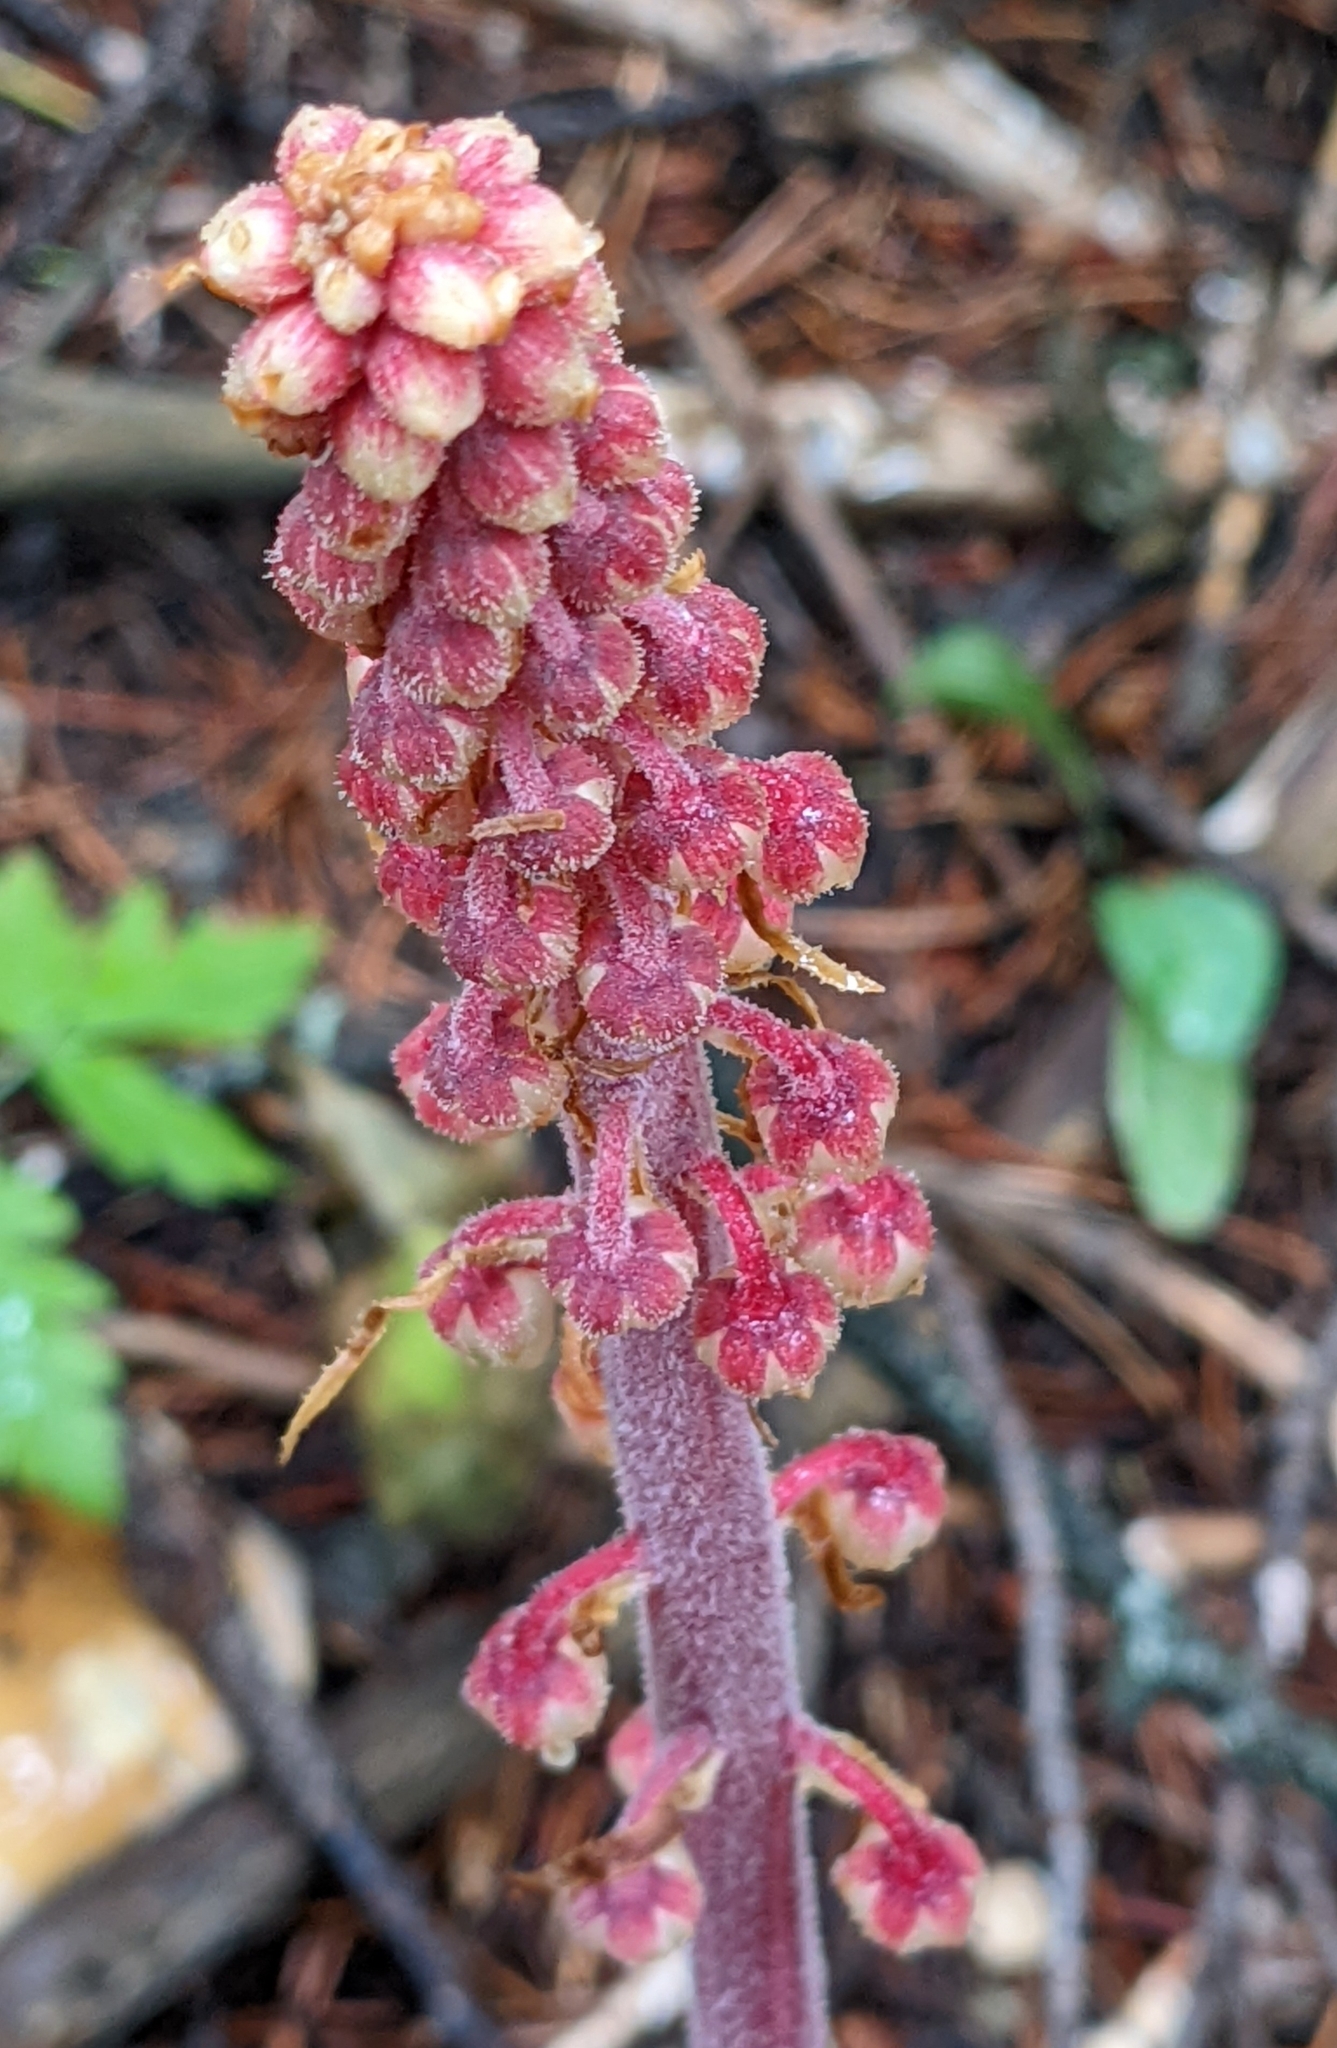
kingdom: Plantae
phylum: Tracheophyta
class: Magnoliopsida
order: Ericales
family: Ericaceae
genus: Pterospora
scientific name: Pterospora andromedea
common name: Giant bird's-nest
